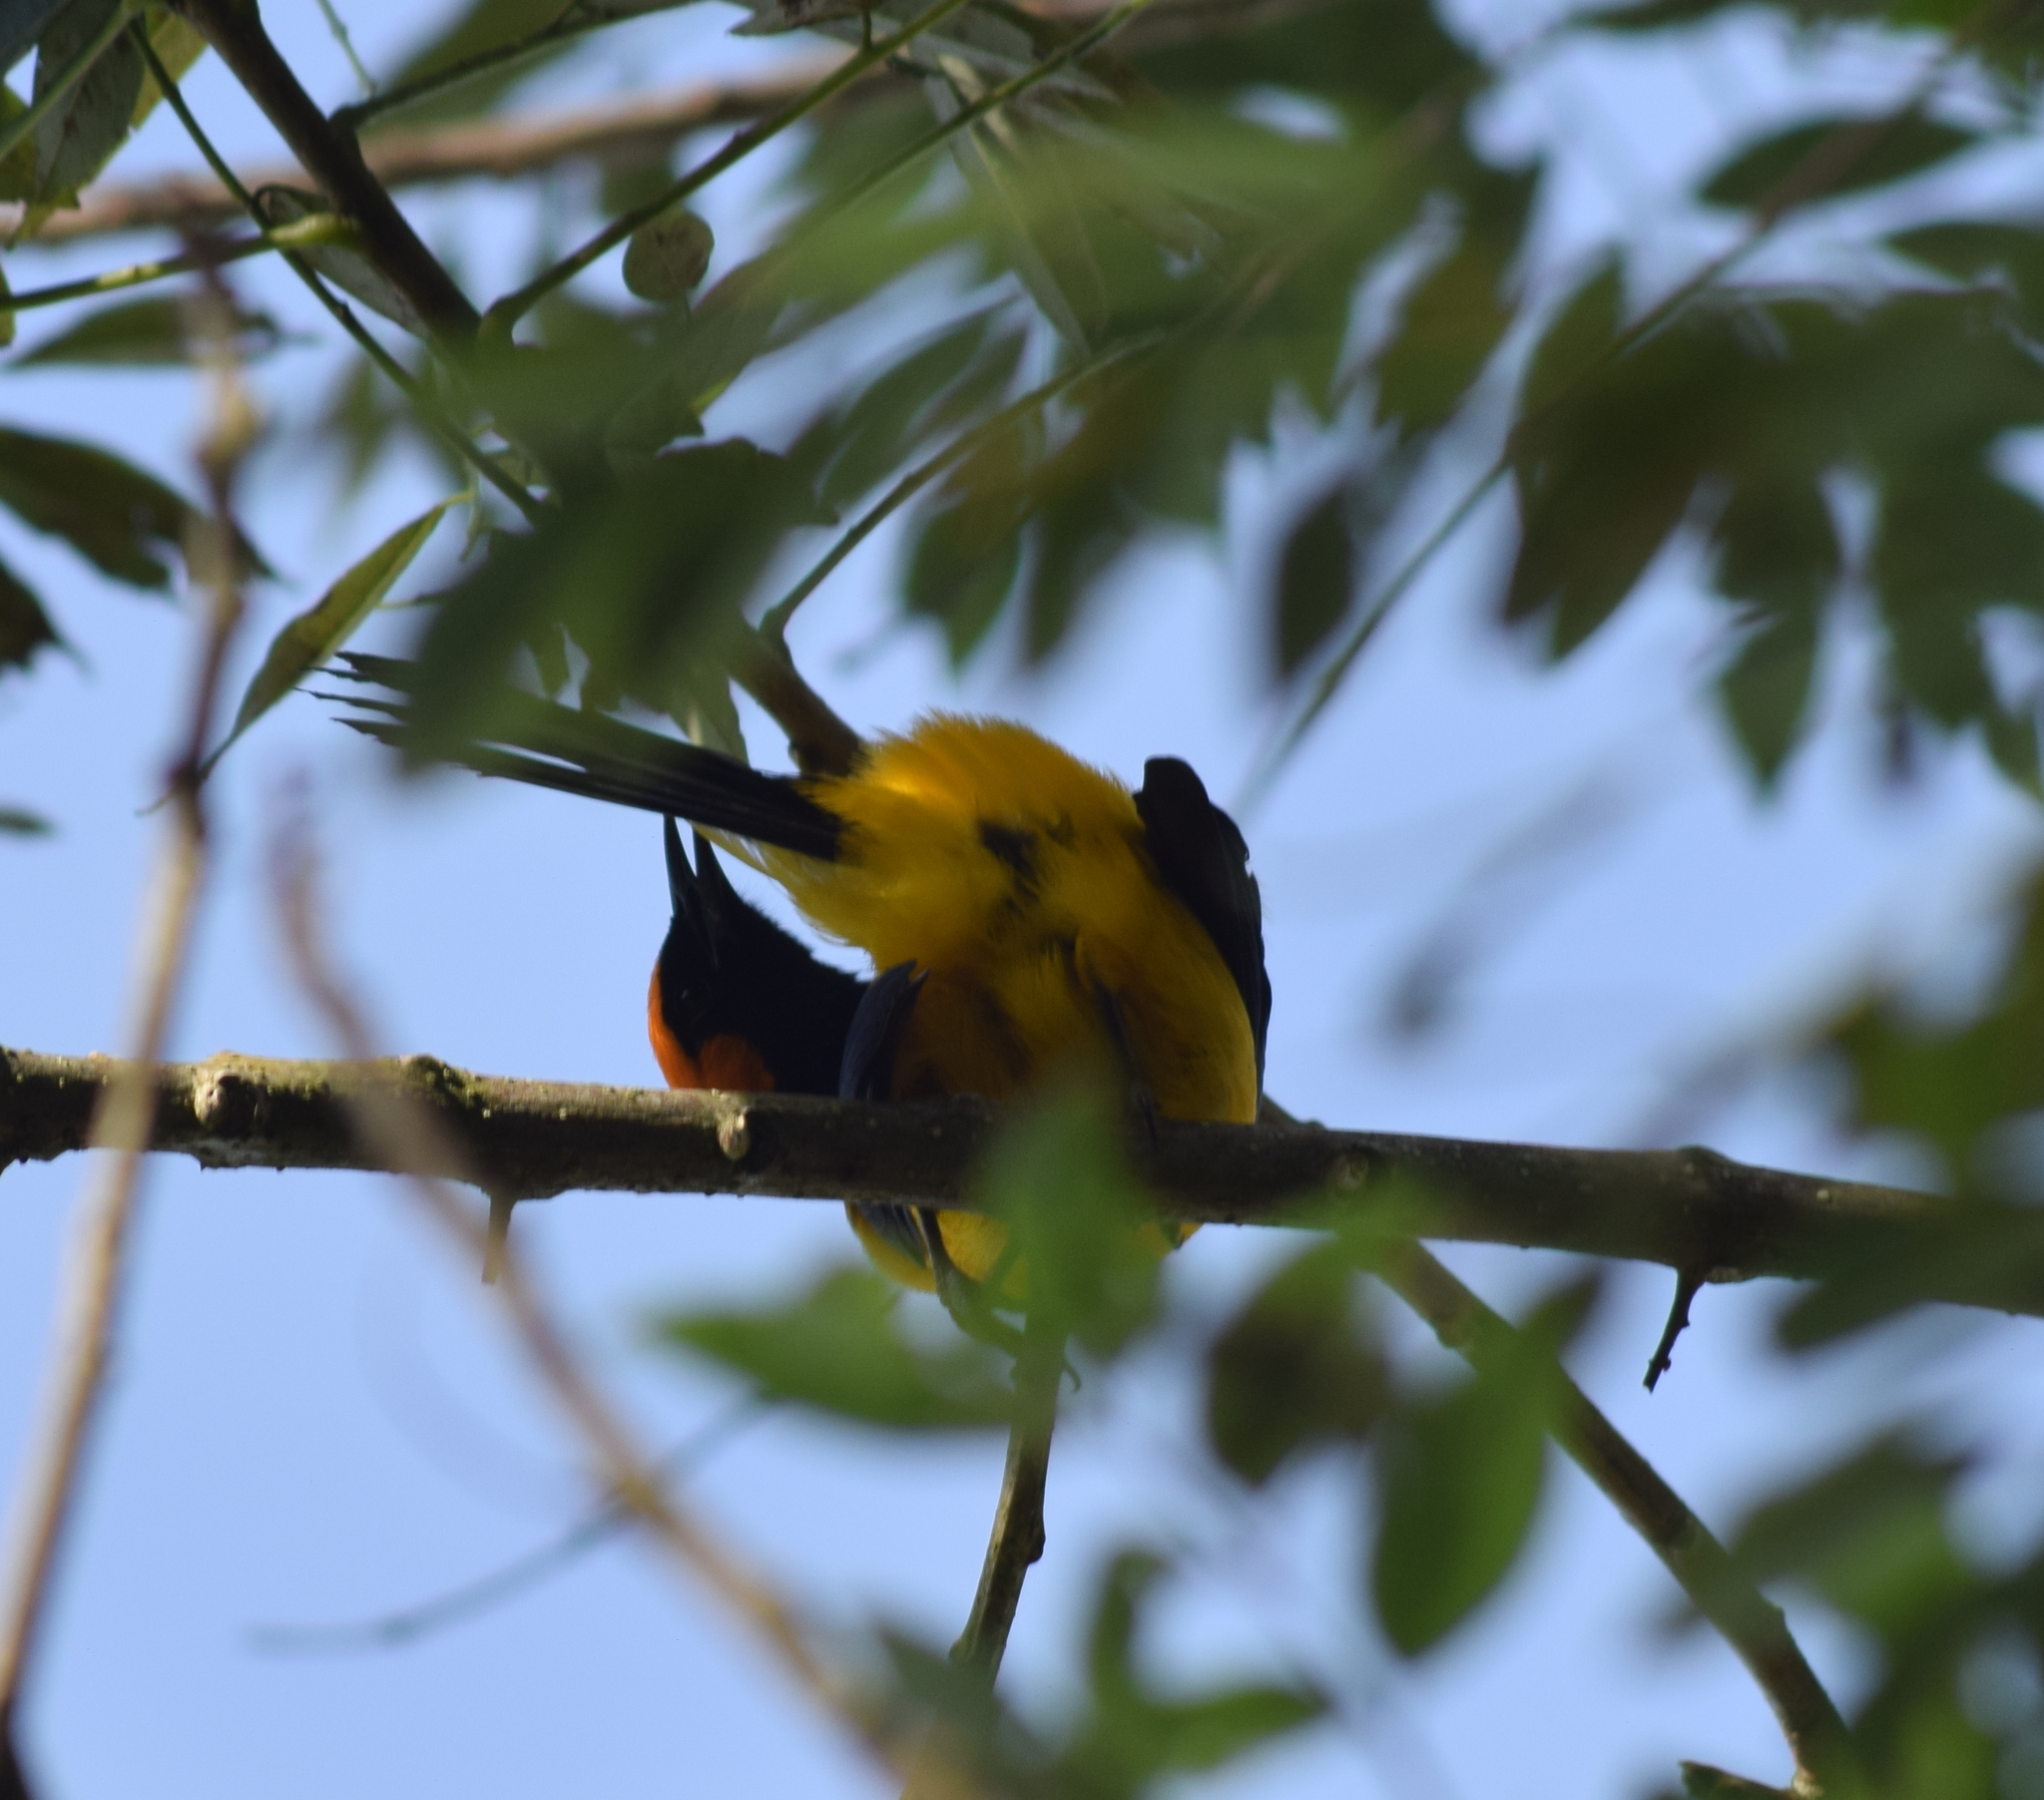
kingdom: Animalia
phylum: Chordata
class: Aves
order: Passeriformes
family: Icteridae
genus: Icterus
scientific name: Icterus auricapillus
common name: Orange-crowned oriole
